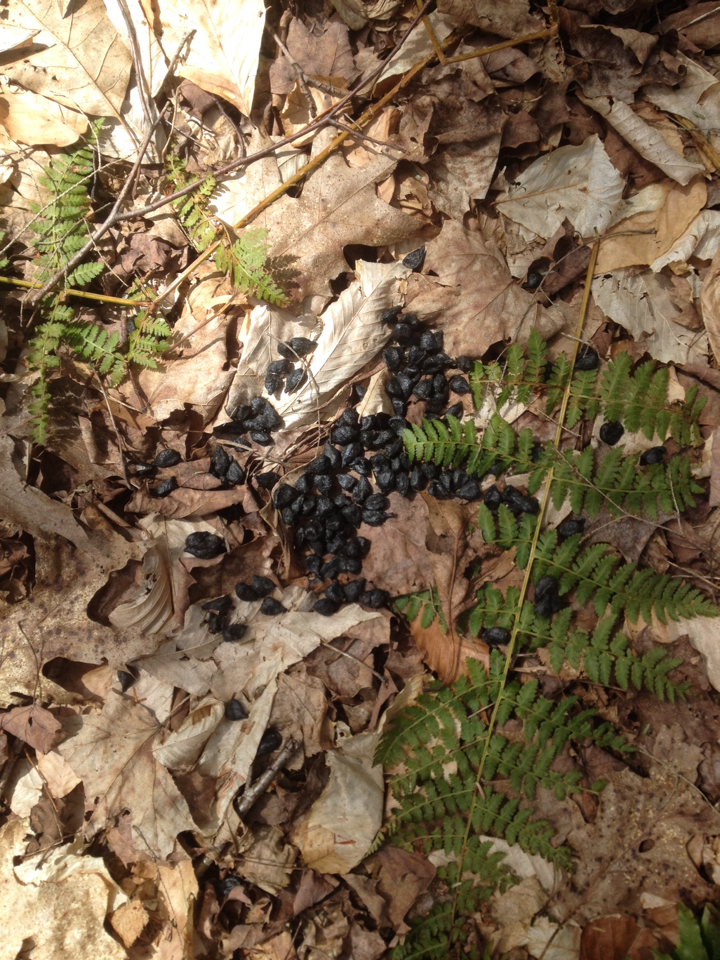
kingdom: Animalia
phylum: Chordata
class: Mammalia
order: Artiodactyla
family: Cervidae
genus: Odocoileus
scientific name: Odocoileus virginianus
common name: White-tailed deer
